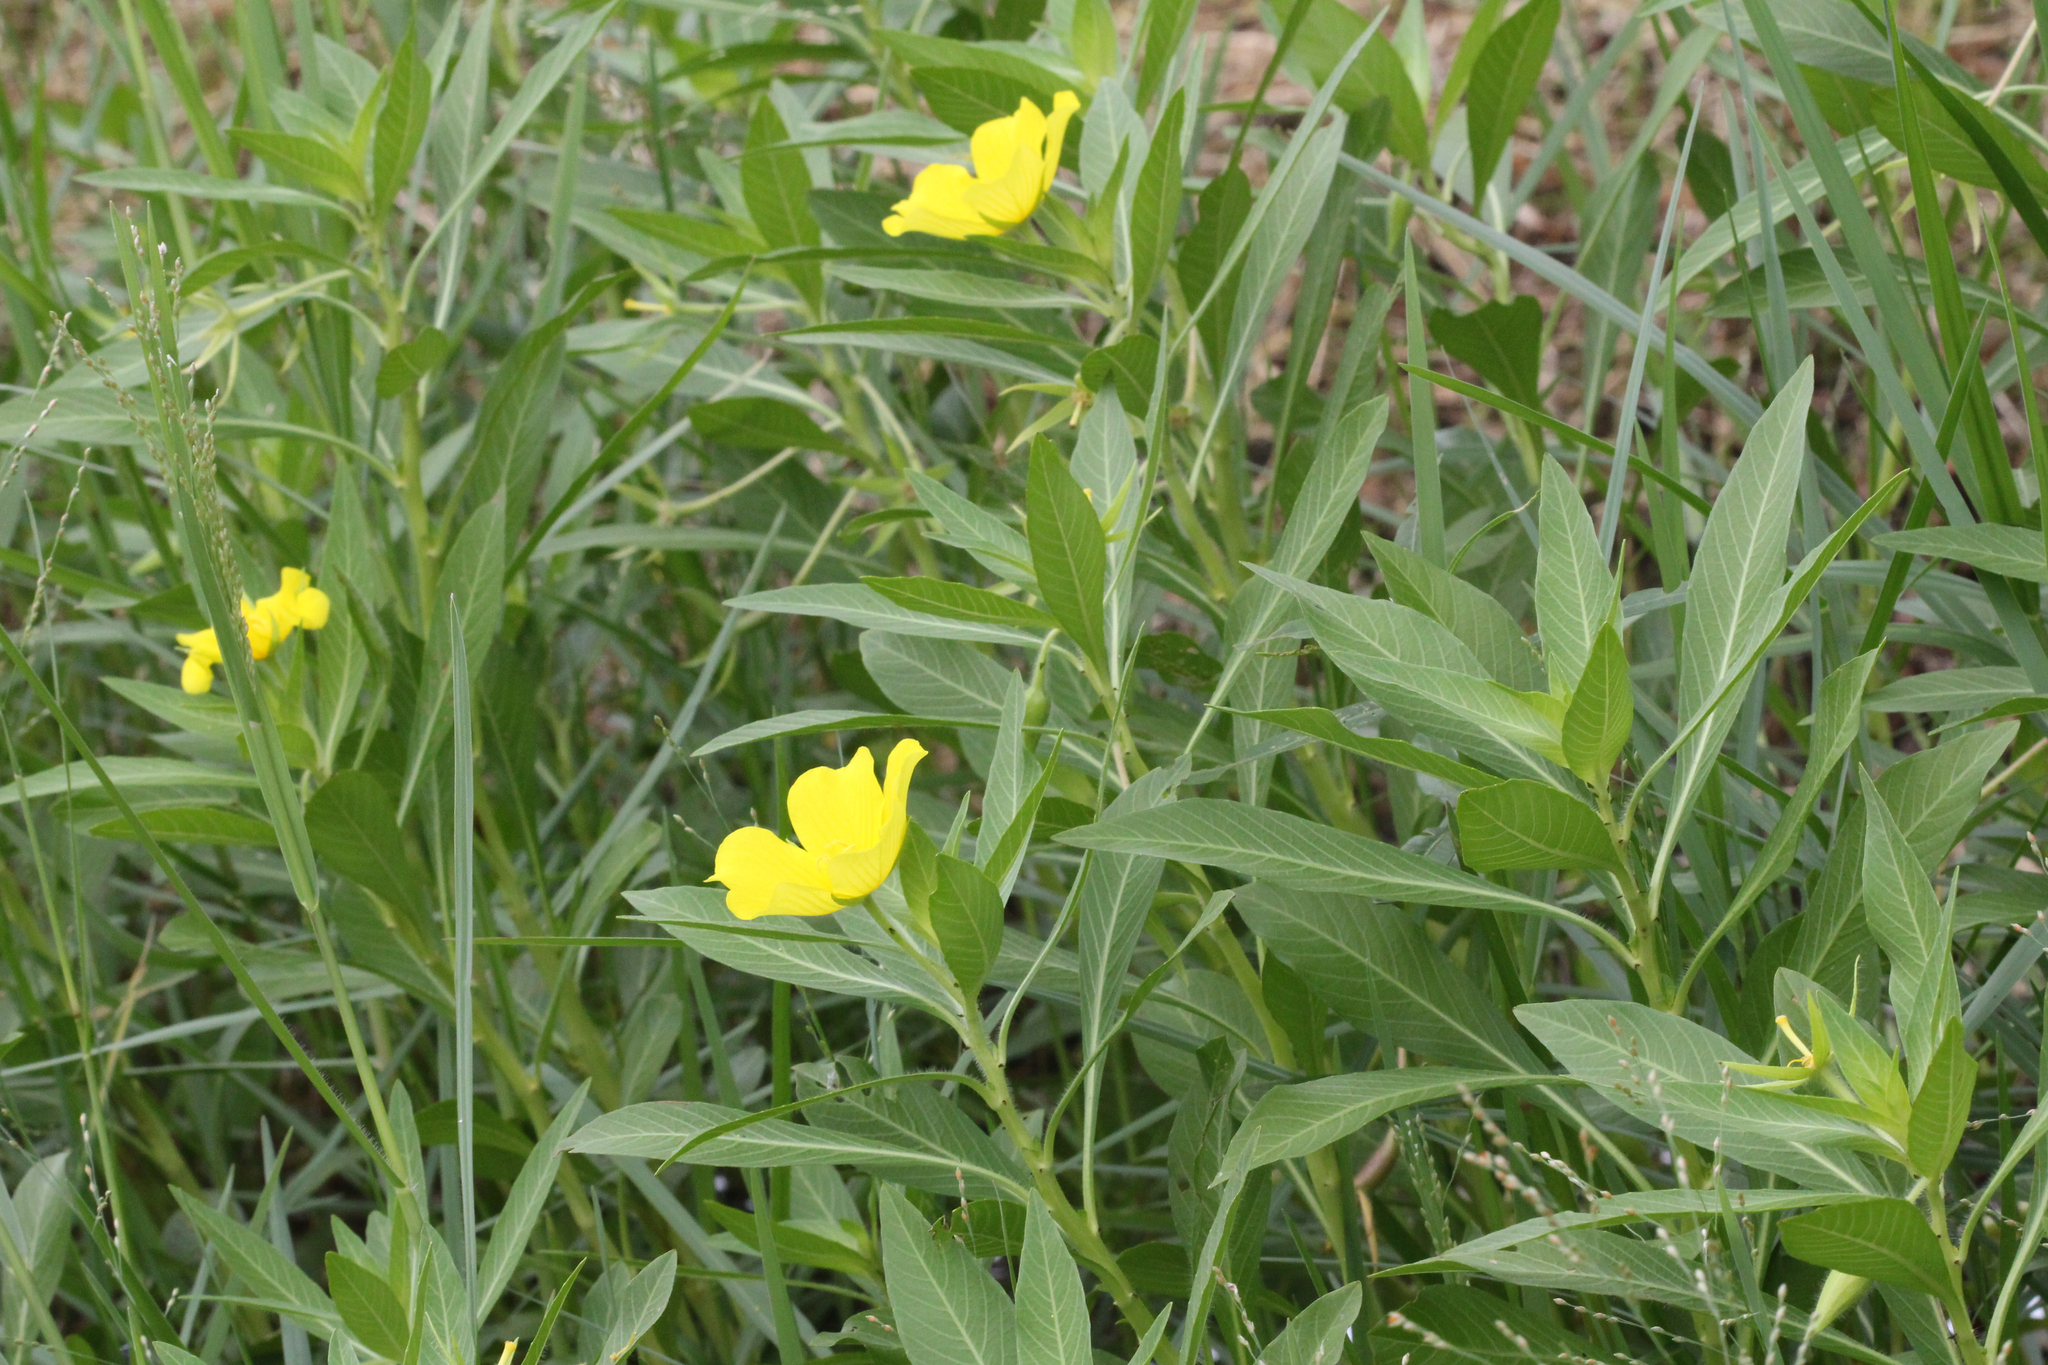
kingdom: Plantae
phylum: Tracheophyta
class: Magnoliopsida
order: Myrtales
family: Onagraceae
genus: Ludwigia
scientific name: Ludwigia hexapetala
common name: Water-primrose
